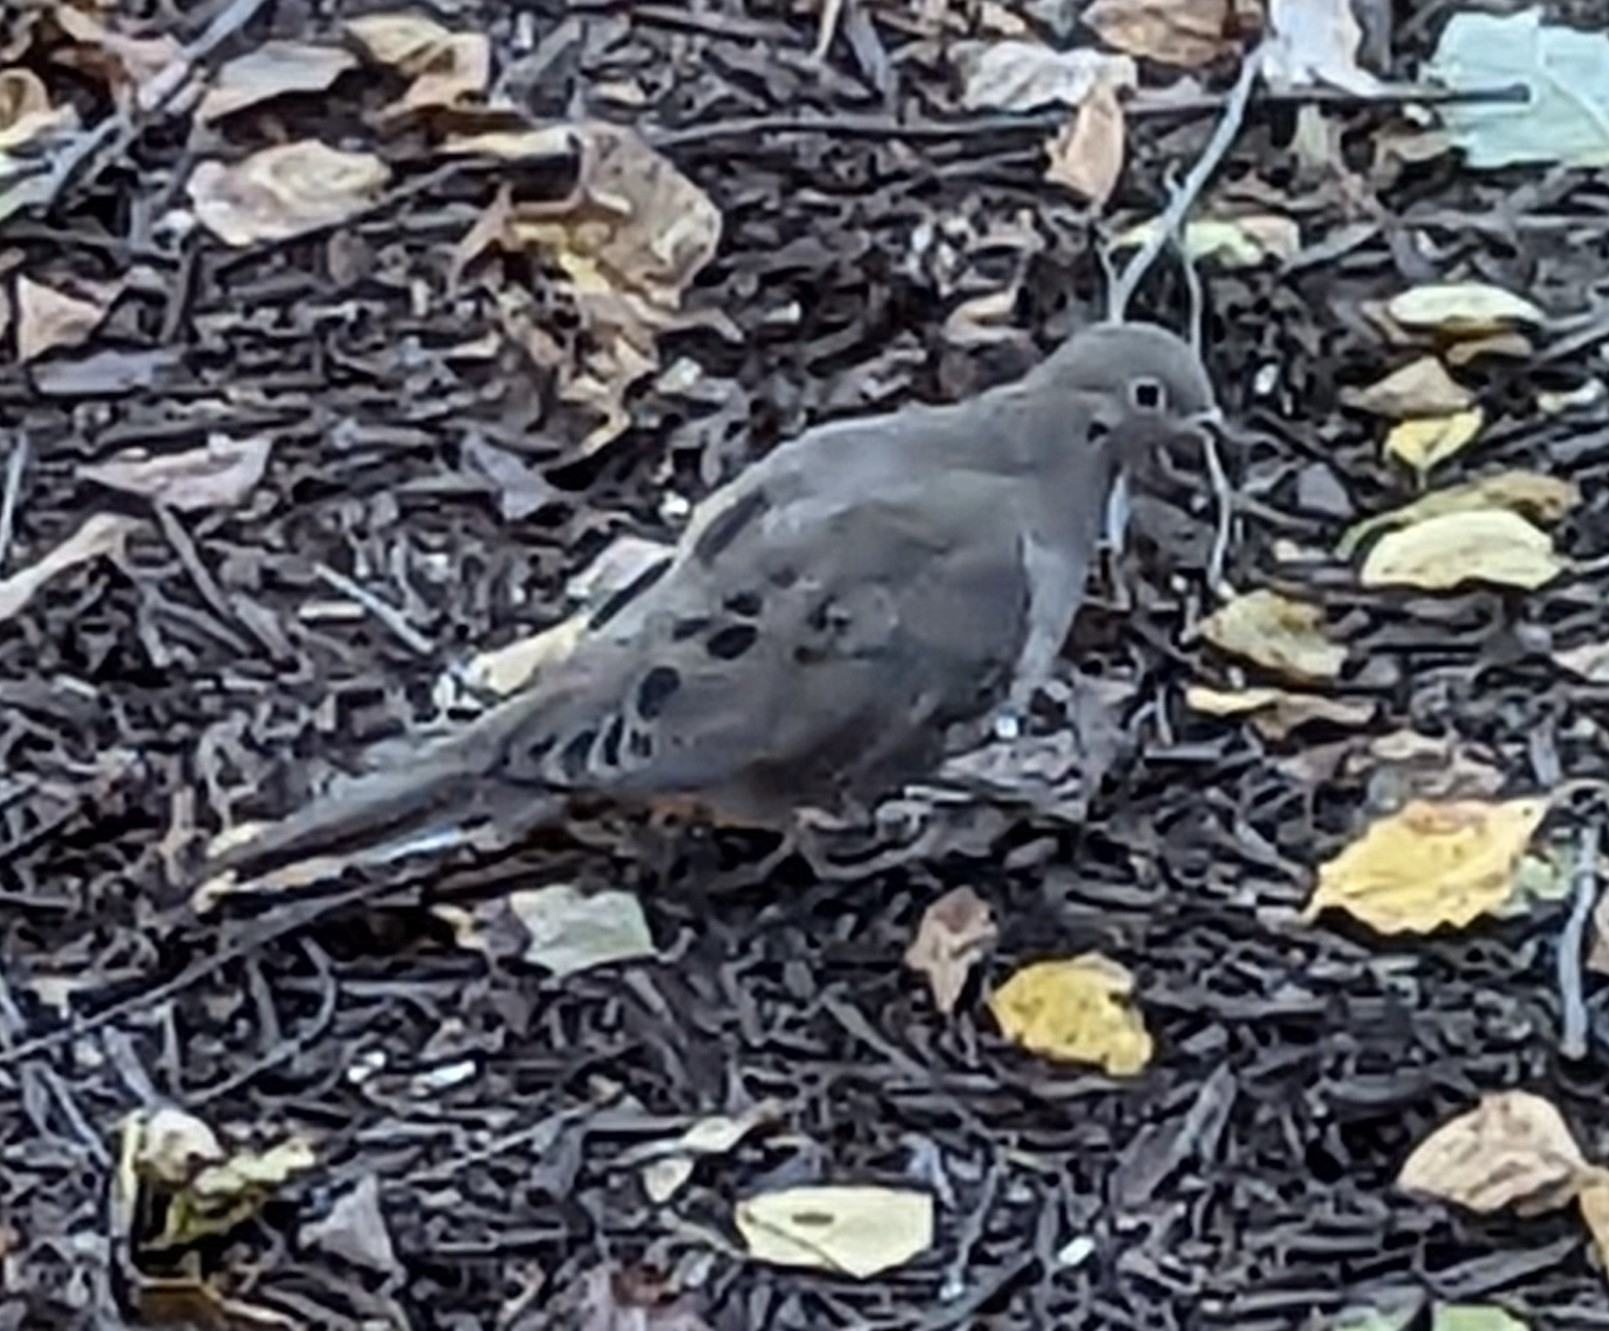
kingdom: Animalia
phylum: Chordata
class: Aves
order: Columbiformes
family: Columbidae
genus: Zenaida
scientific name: Zenaida macroura
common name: Mourning dove
